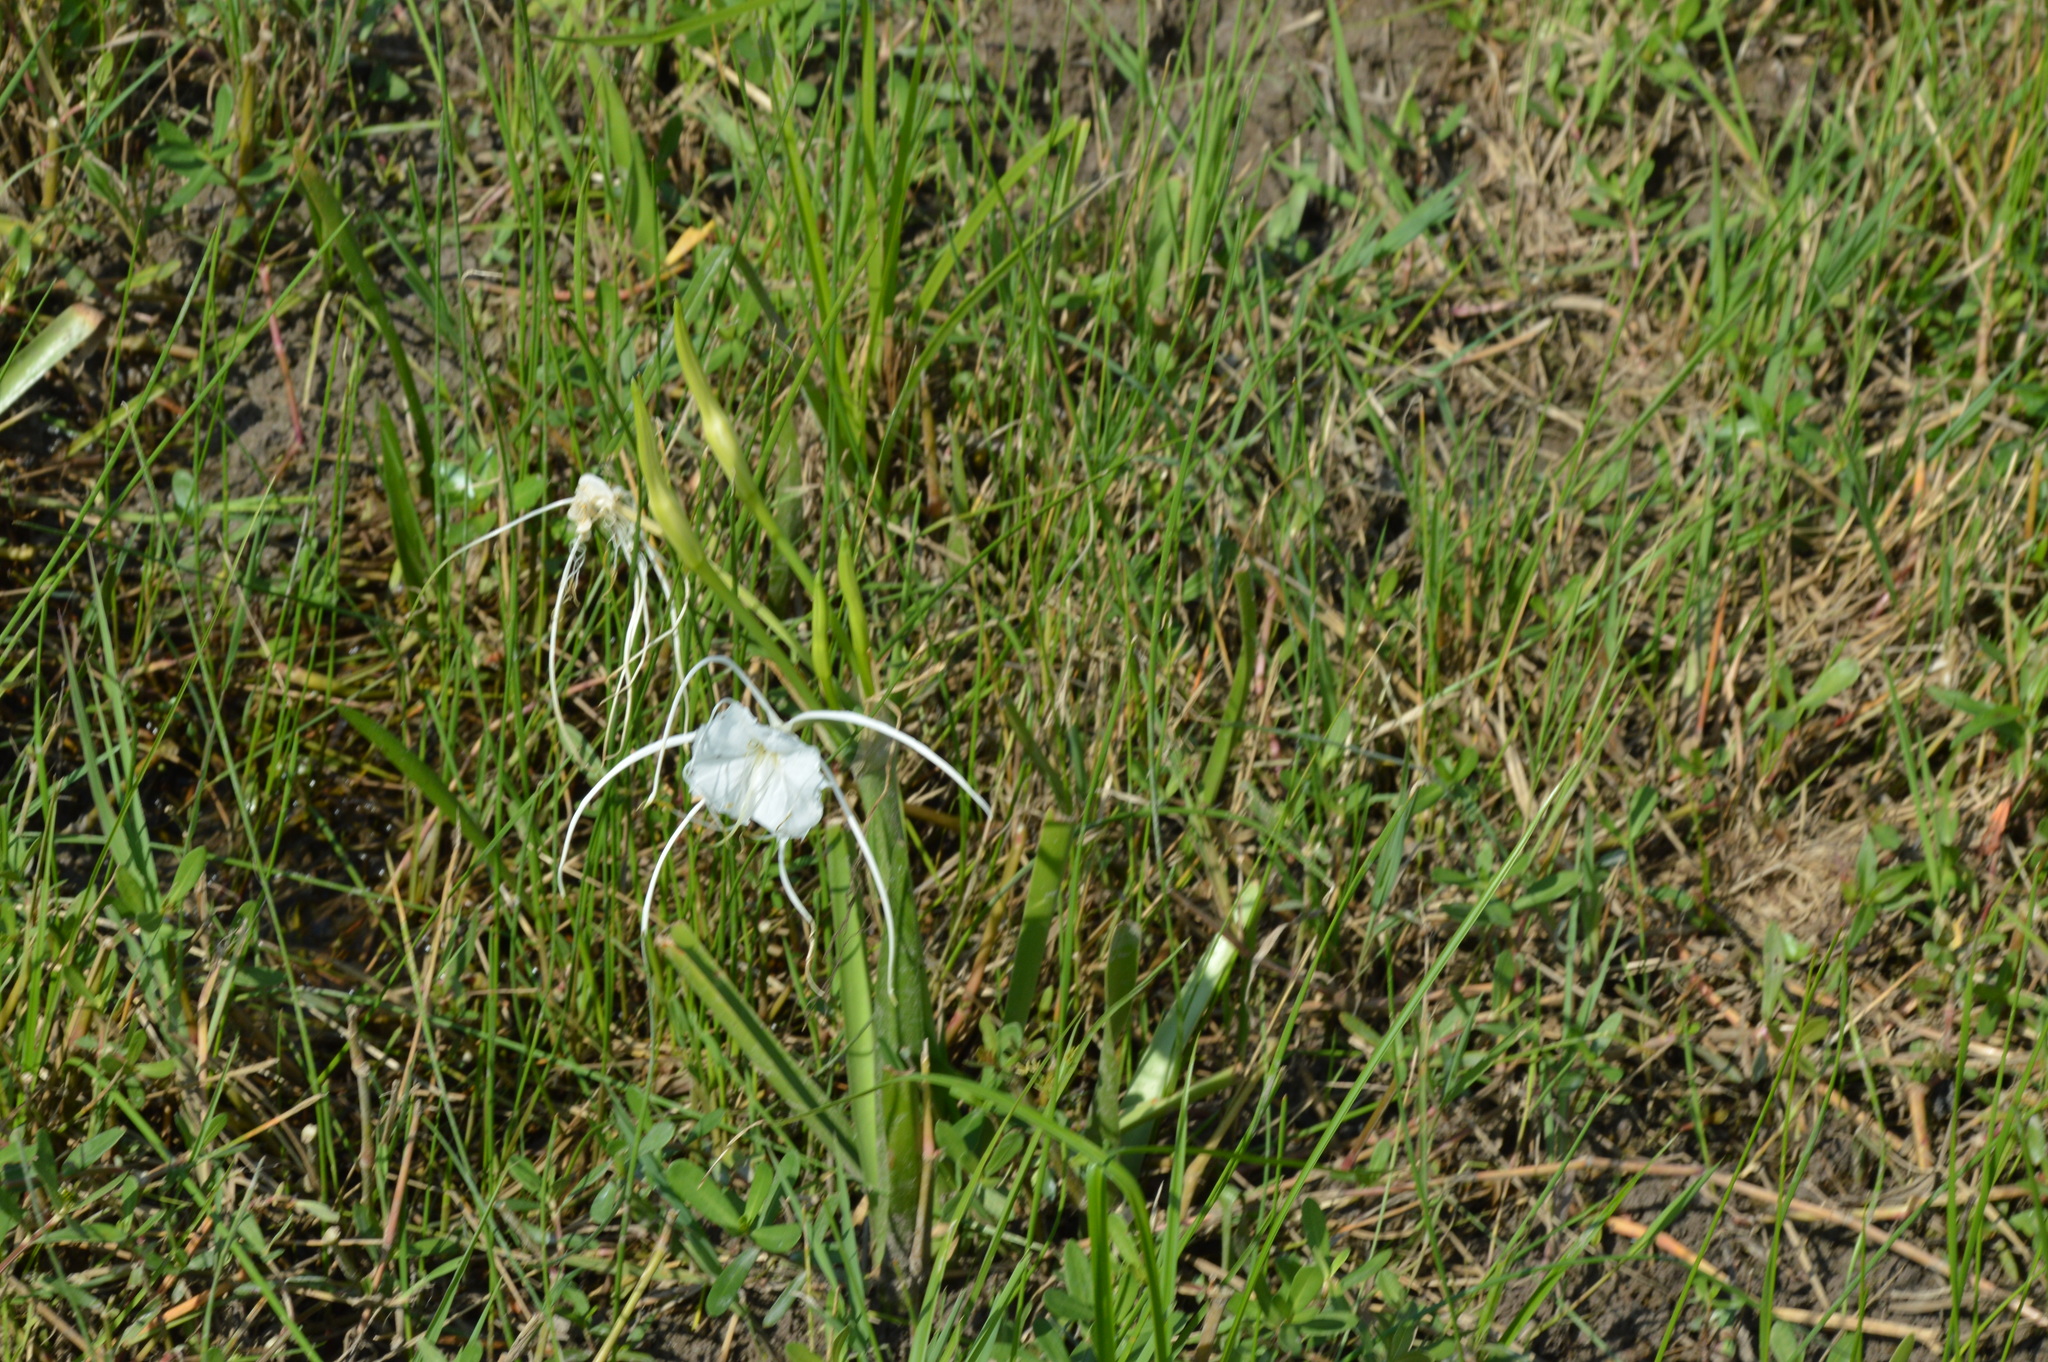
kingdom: Plantae
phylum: Tracheophyta
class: Liliopsida
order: Asparagales
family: Amaryllidaceae
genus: Hymenocallis
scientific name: Hymenocallis liriosme
